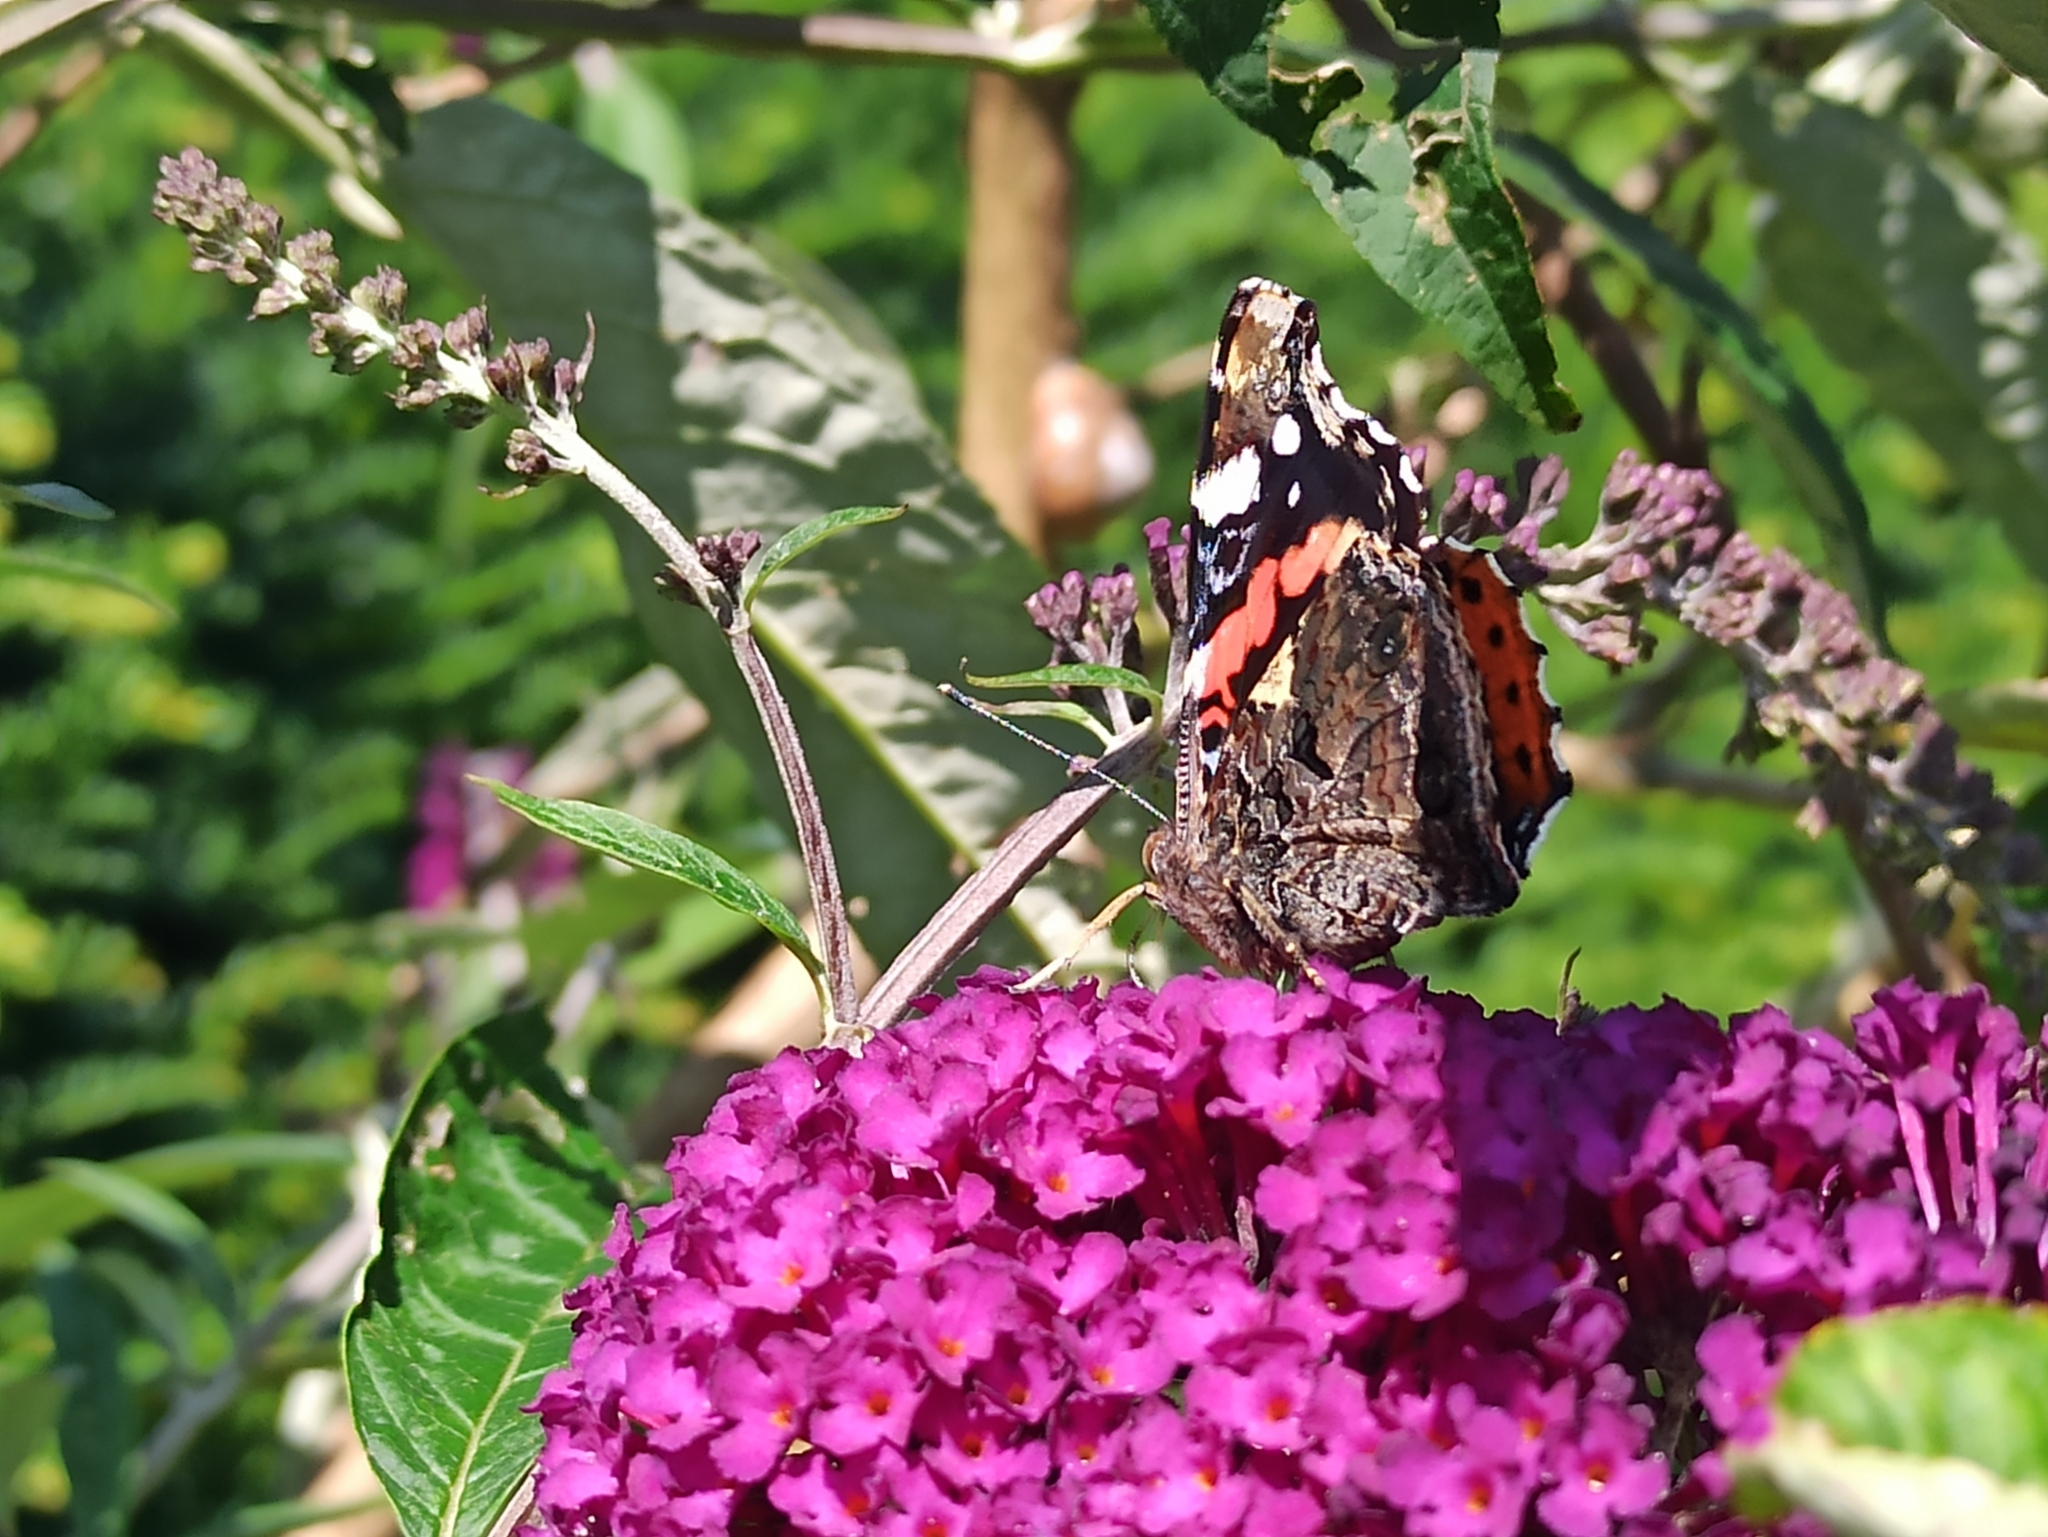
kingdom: Animalia
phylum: Arthropoda
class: Insecta
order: Lepidoptera
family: Nymphalidae
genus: Vanessa
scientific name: Vanessa atalanta
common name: Red admiral
